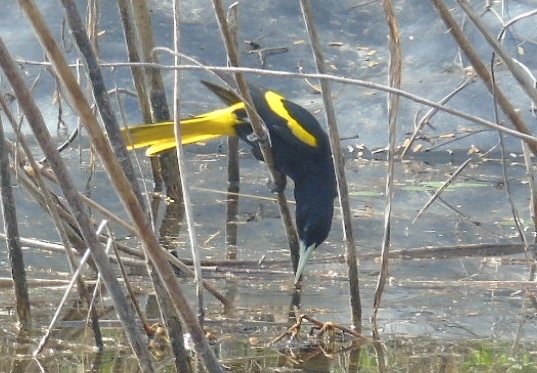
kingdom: Animalia
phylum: Chordata
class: Aves
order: Passeriformes
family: Icteridae
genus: Cacicus
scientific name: Cacicus melanicterus
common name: Yellow-winged cacique
